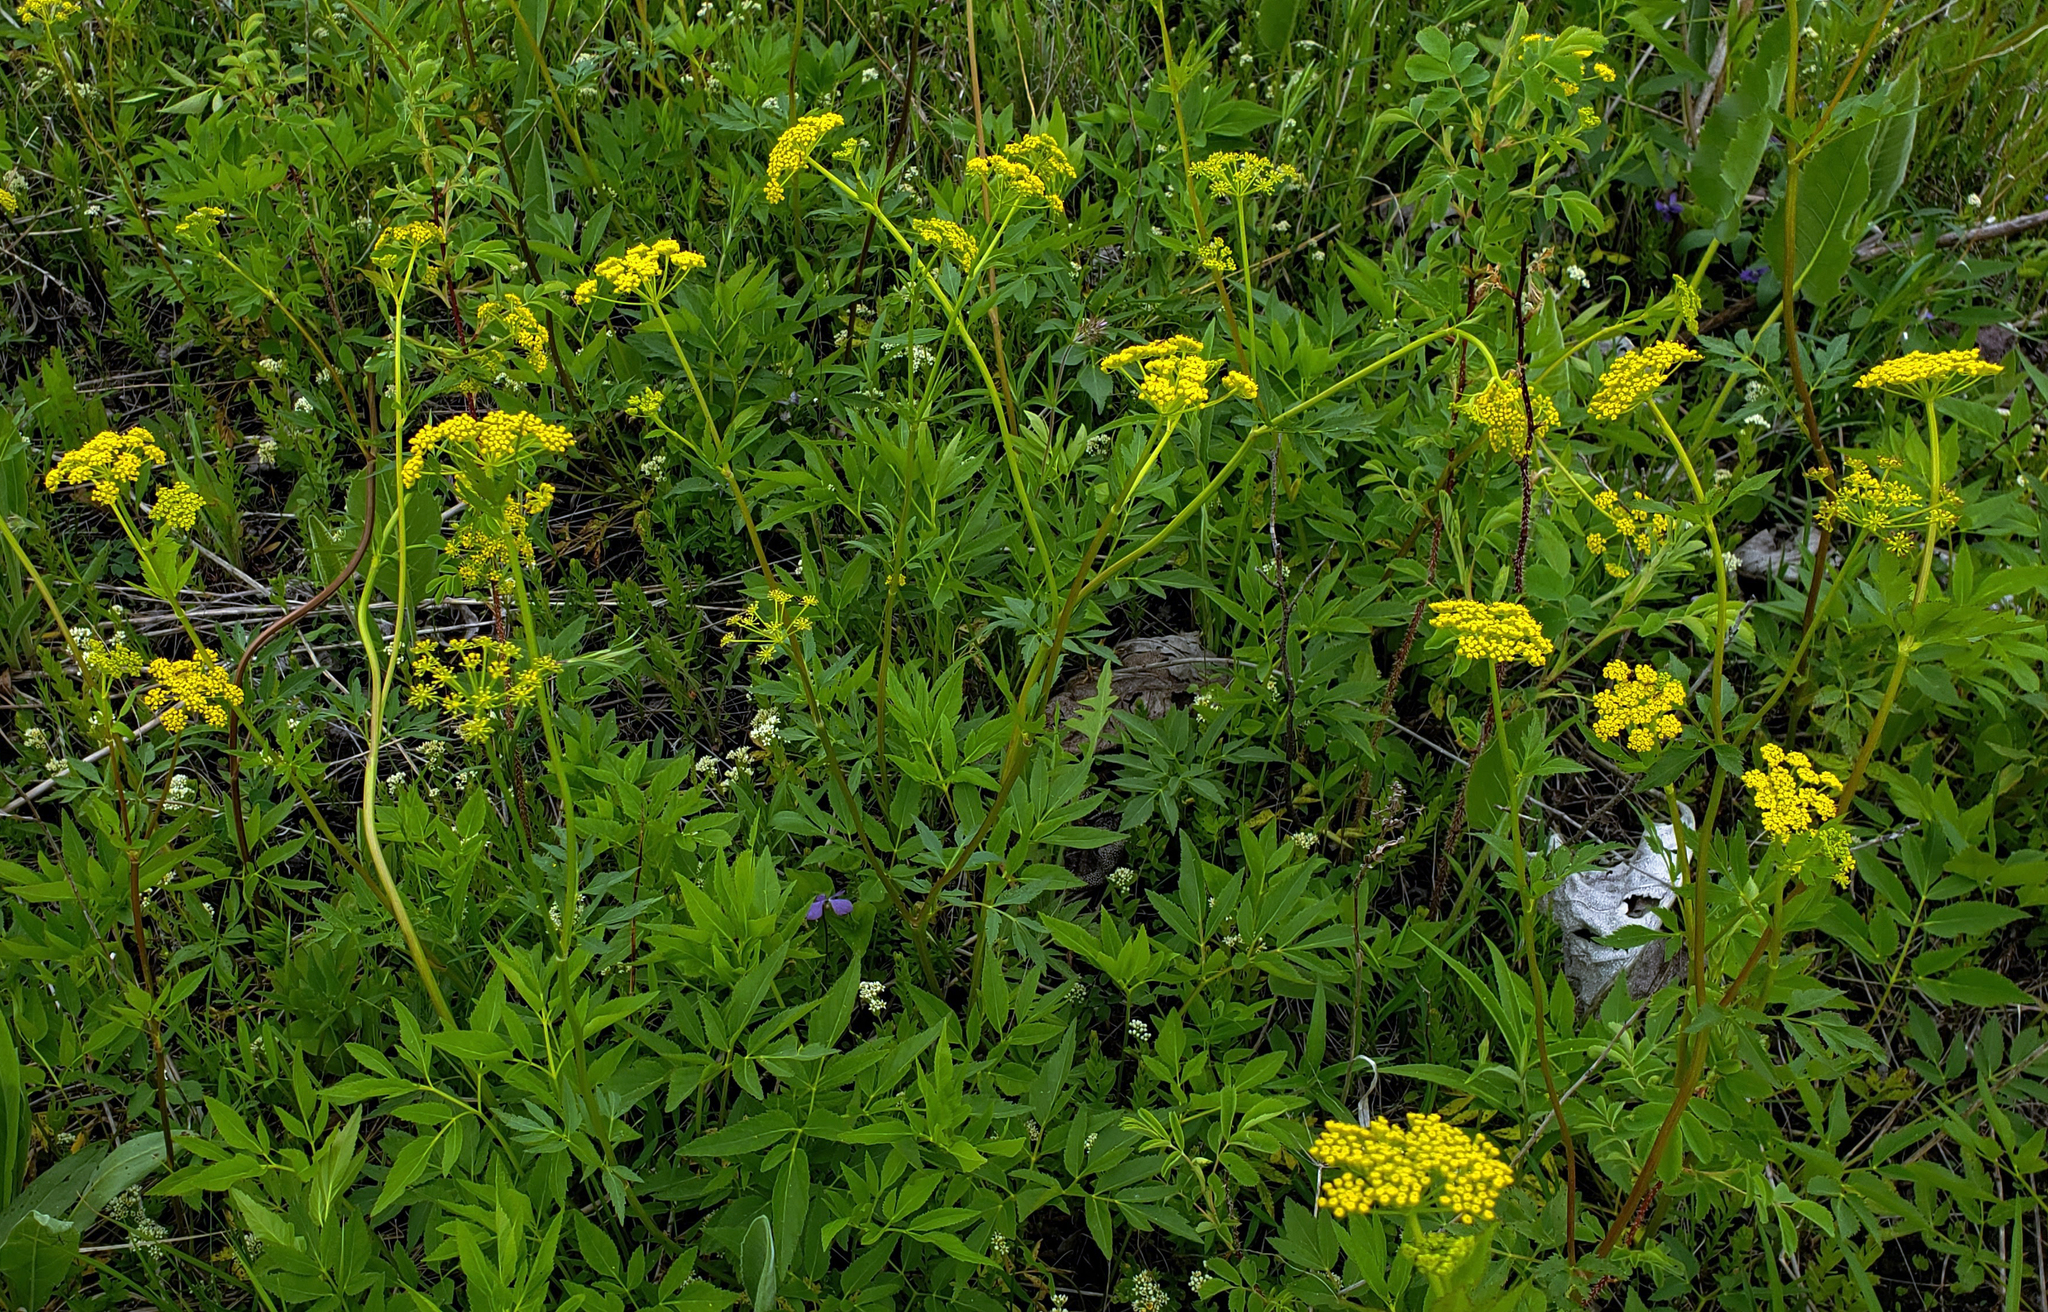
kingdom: Plantae
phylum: Tracheophyta
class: Magnoliopsida
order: Apiales
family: Apiaceae
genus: Zizia
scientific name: Zizia aurea
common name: Golden alexanders
